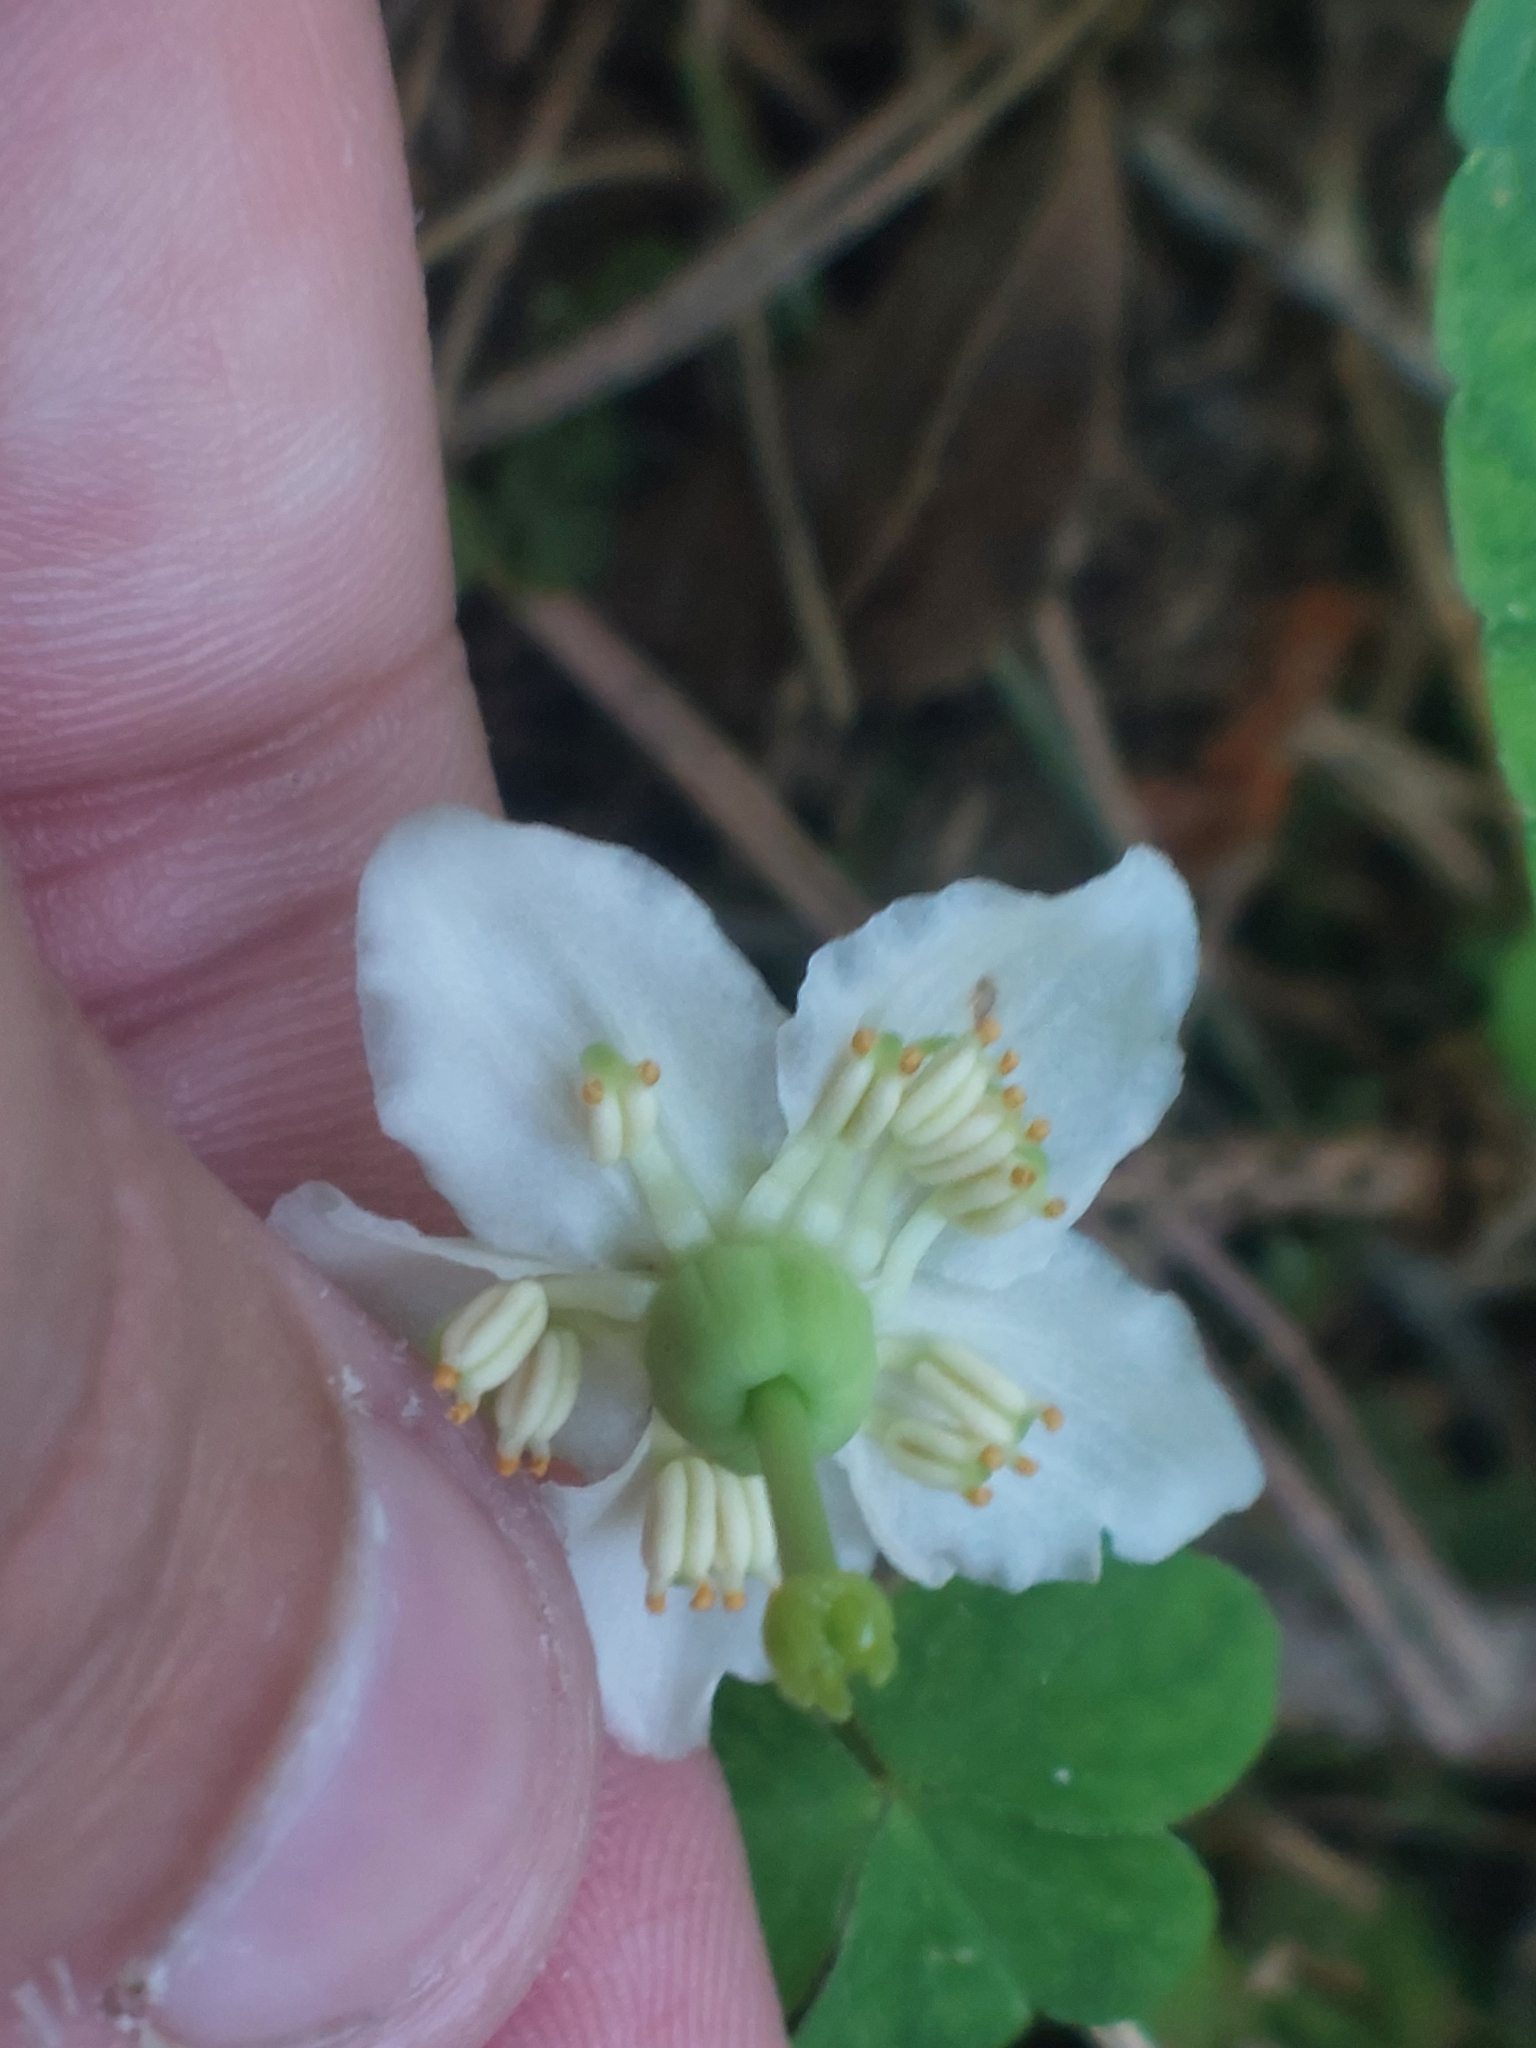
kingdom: Plantae
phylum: Tracheophyta
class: Magnoliopsida
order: Ericales
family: Ericaceae
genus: Moneses
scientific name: Moneses uniflora
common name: One-flowered wintergreen
